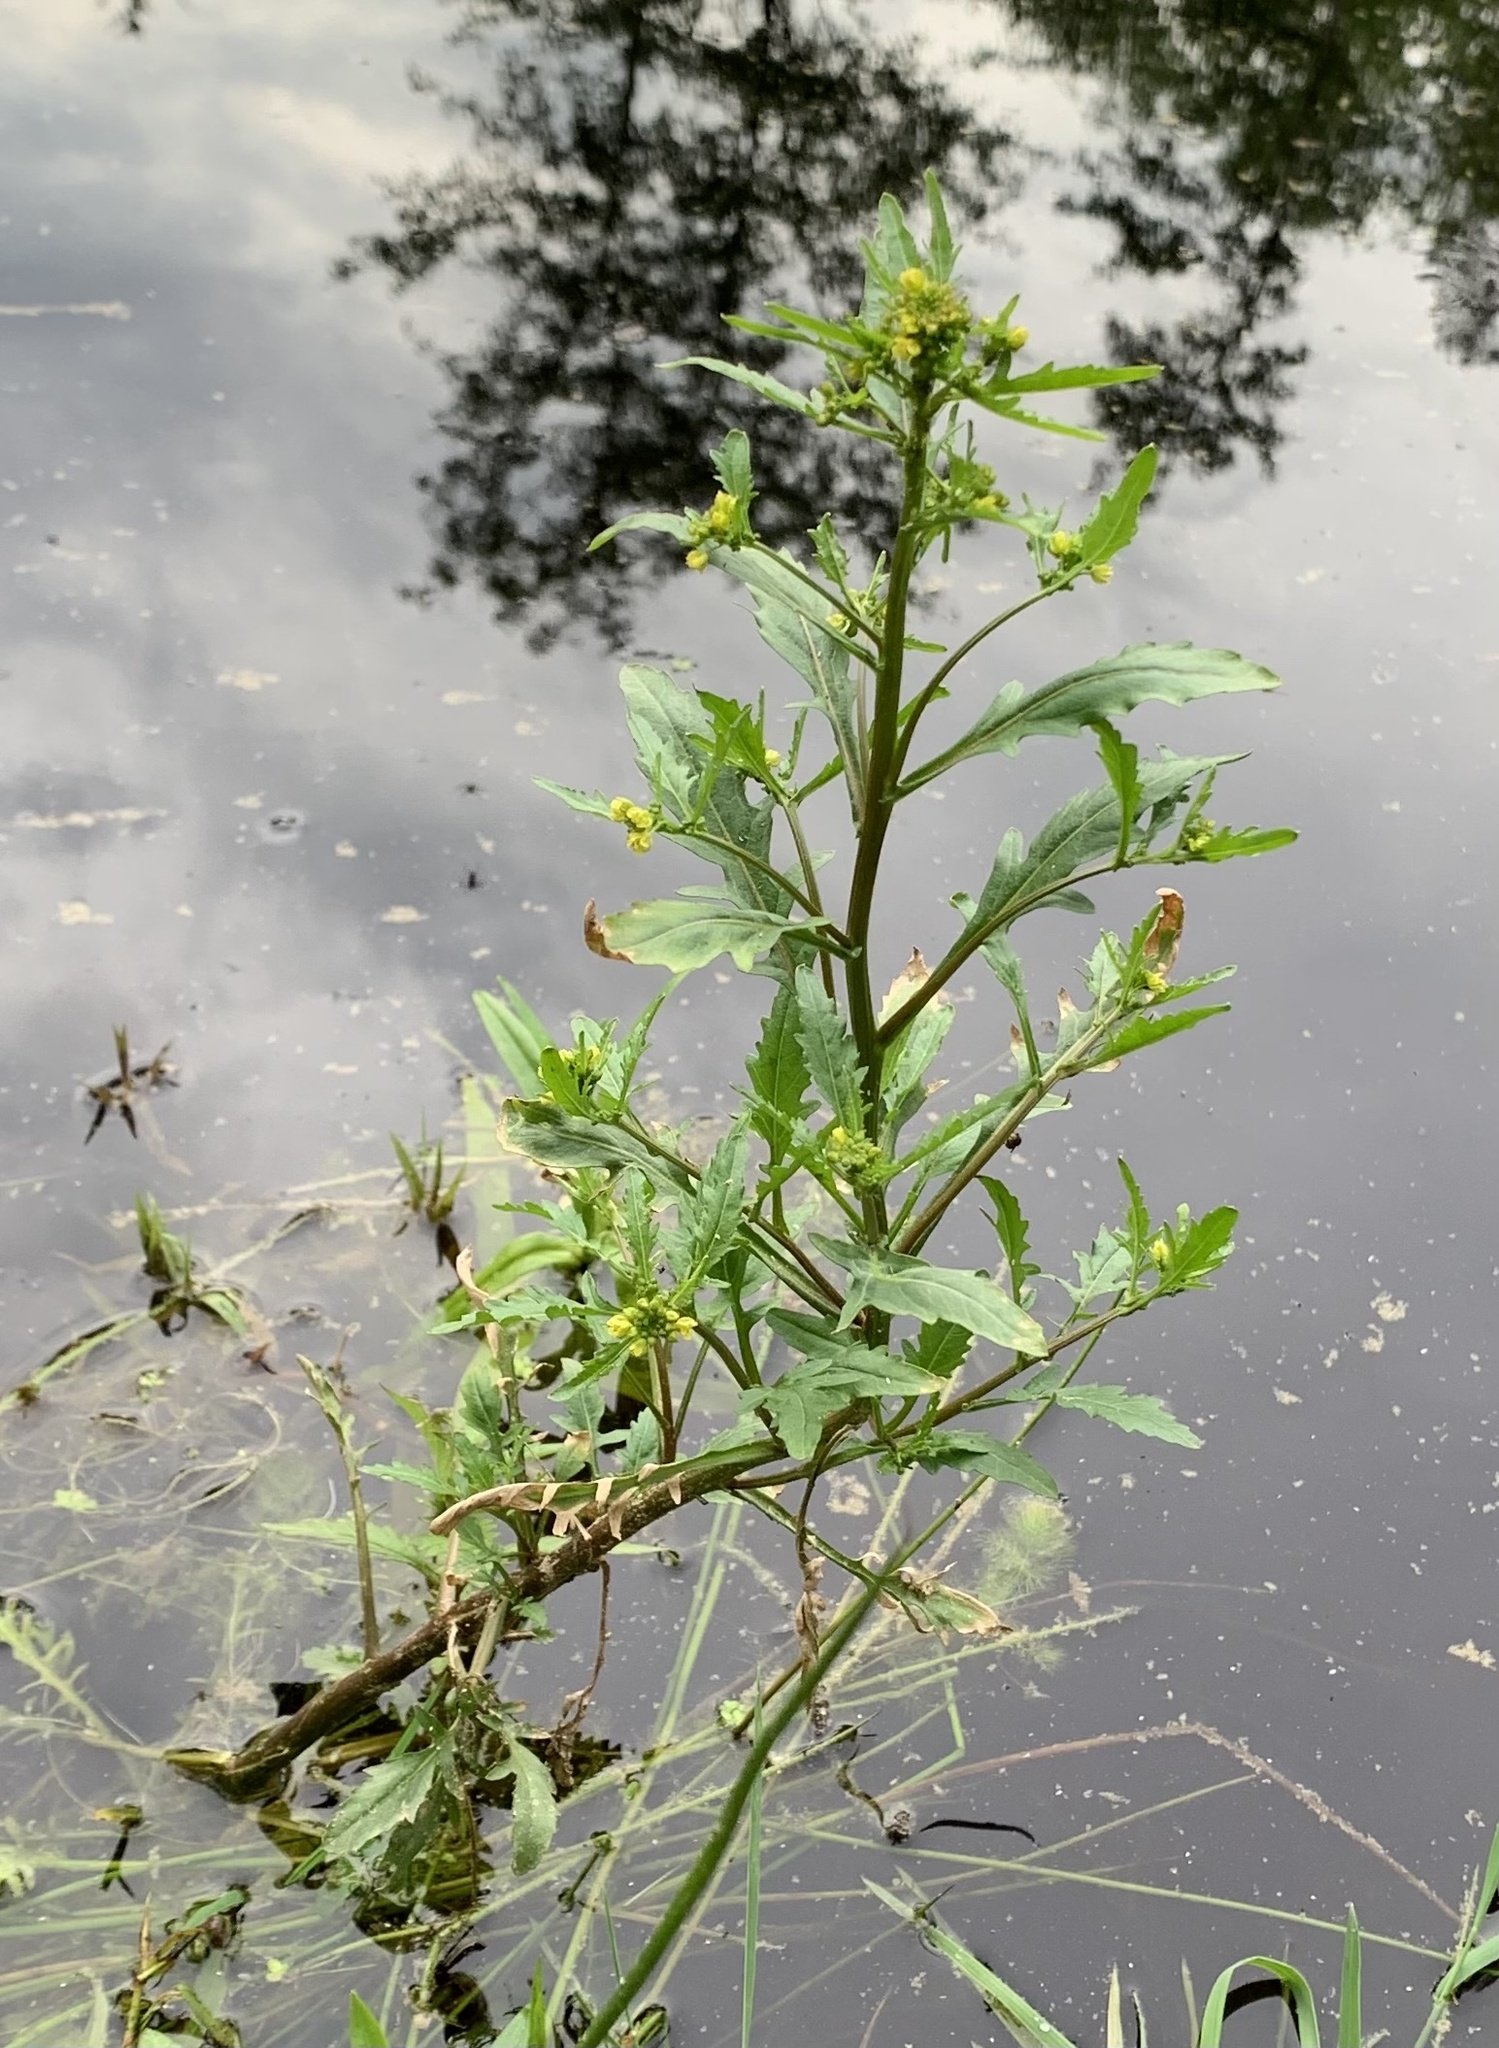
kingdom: Plantae
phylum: Tracheophyta
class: Magnoliopsida
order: Brassicales
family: Brassicaceae
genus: Rorippa
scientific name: Rorippa amphibia
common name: Great yellow-cress
